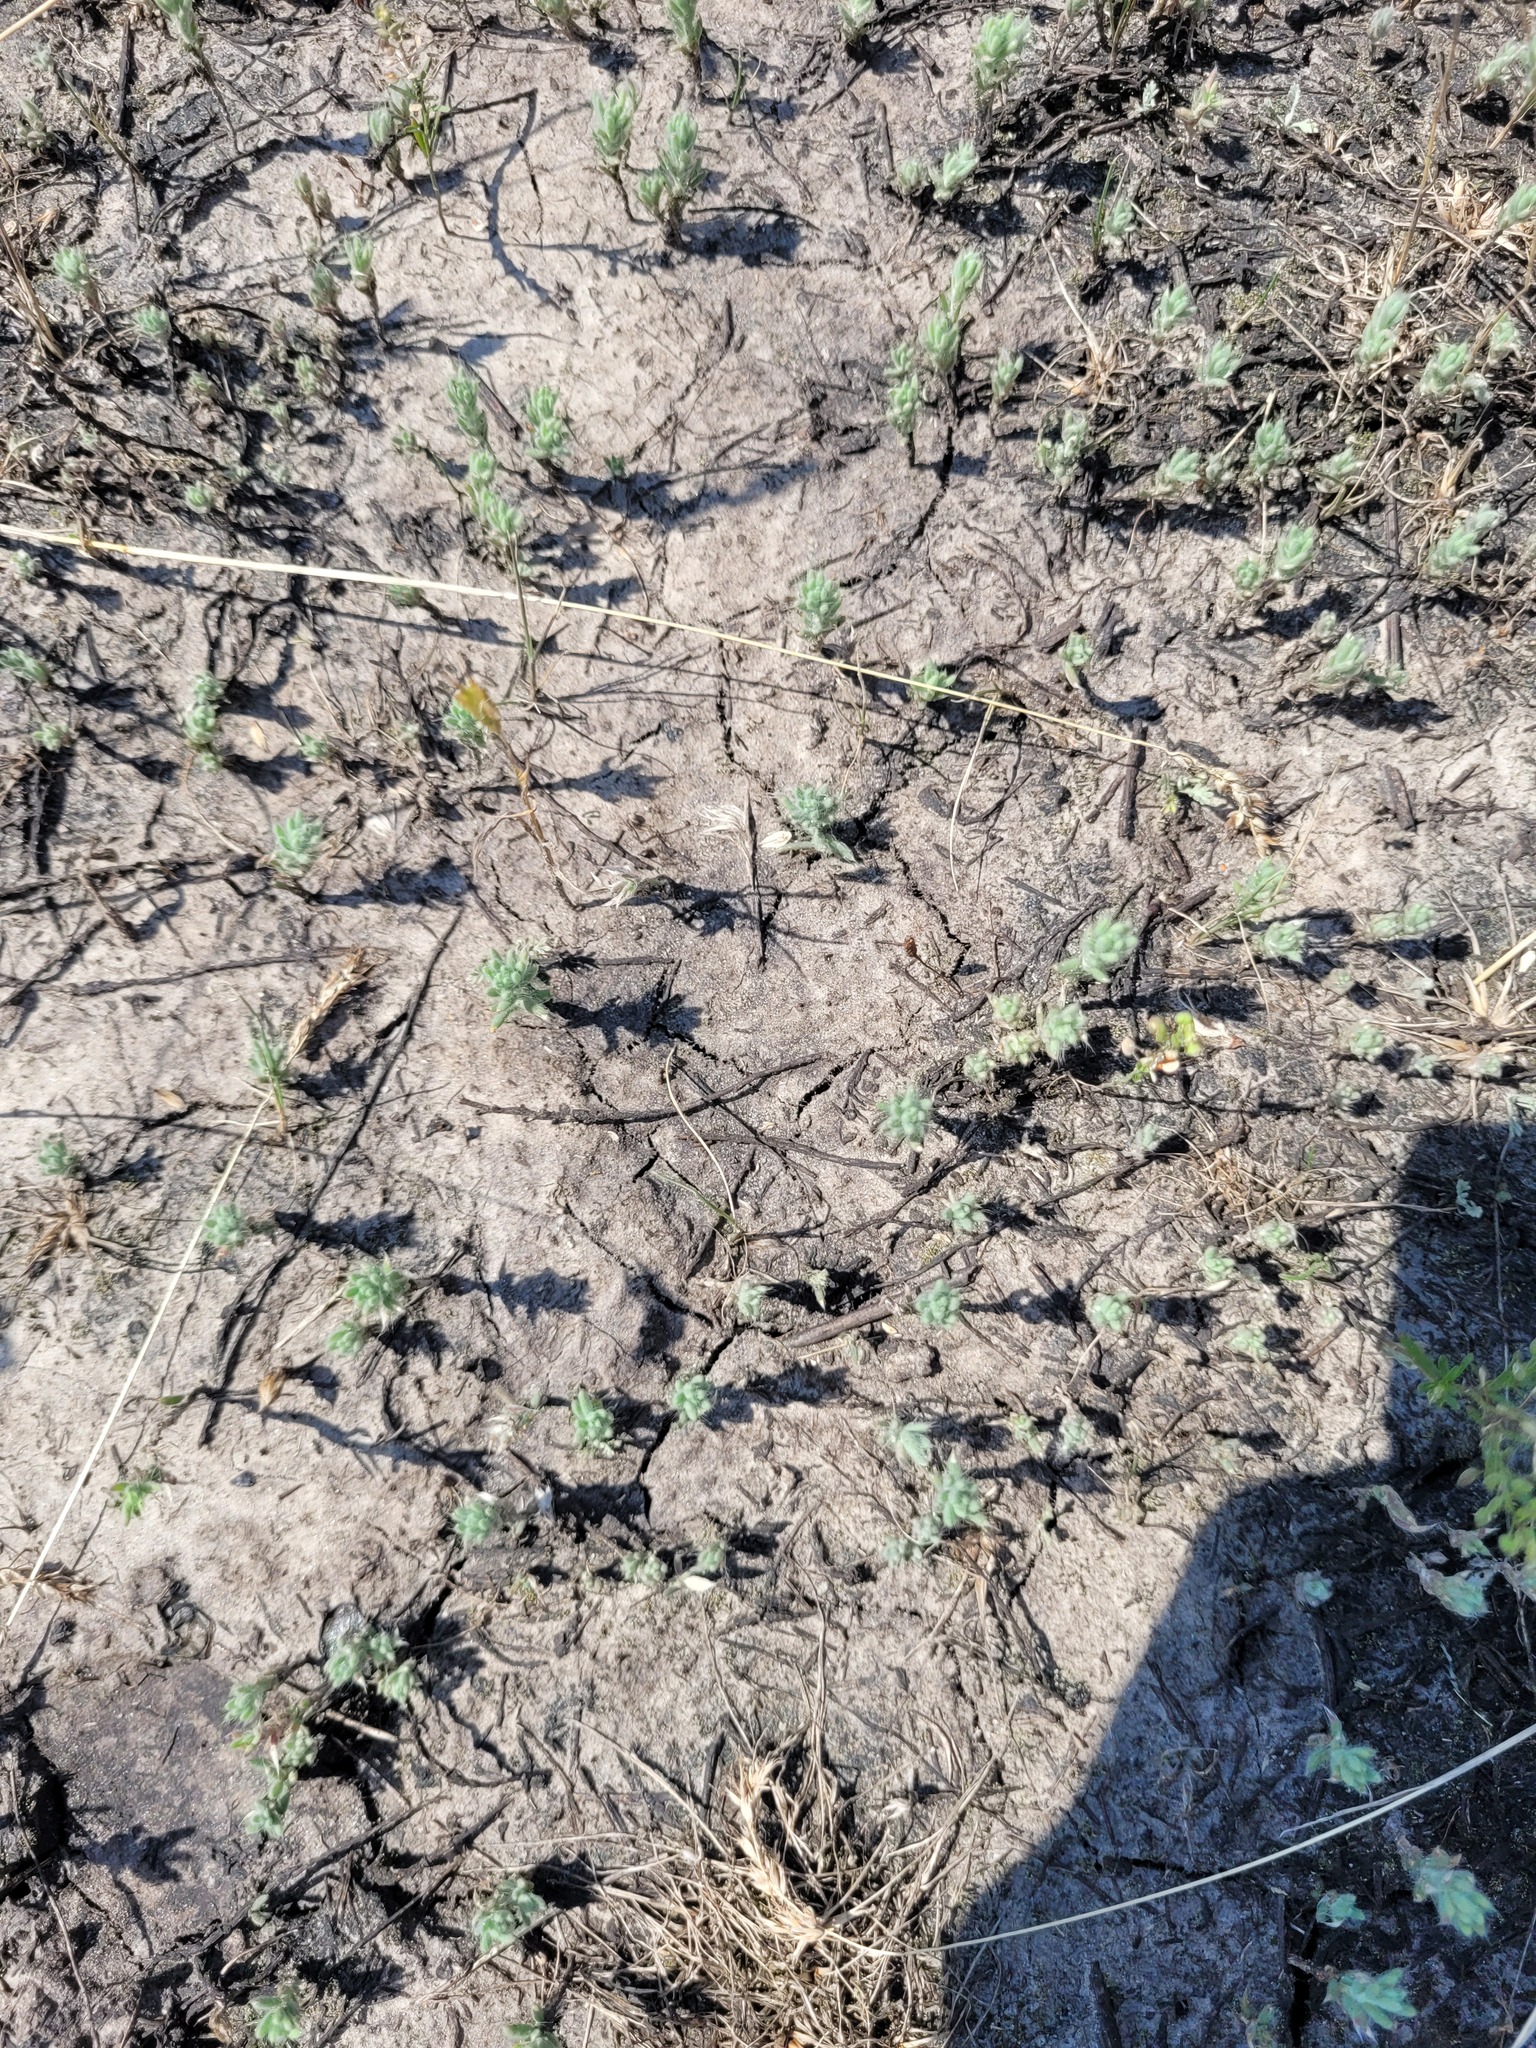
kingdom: Plantae
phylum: Tracheophyta
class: Magnoliopsida
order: Caryophyllales
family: Amaranthaceae
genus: Sedobassia
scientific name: Sedobassia sedoides
